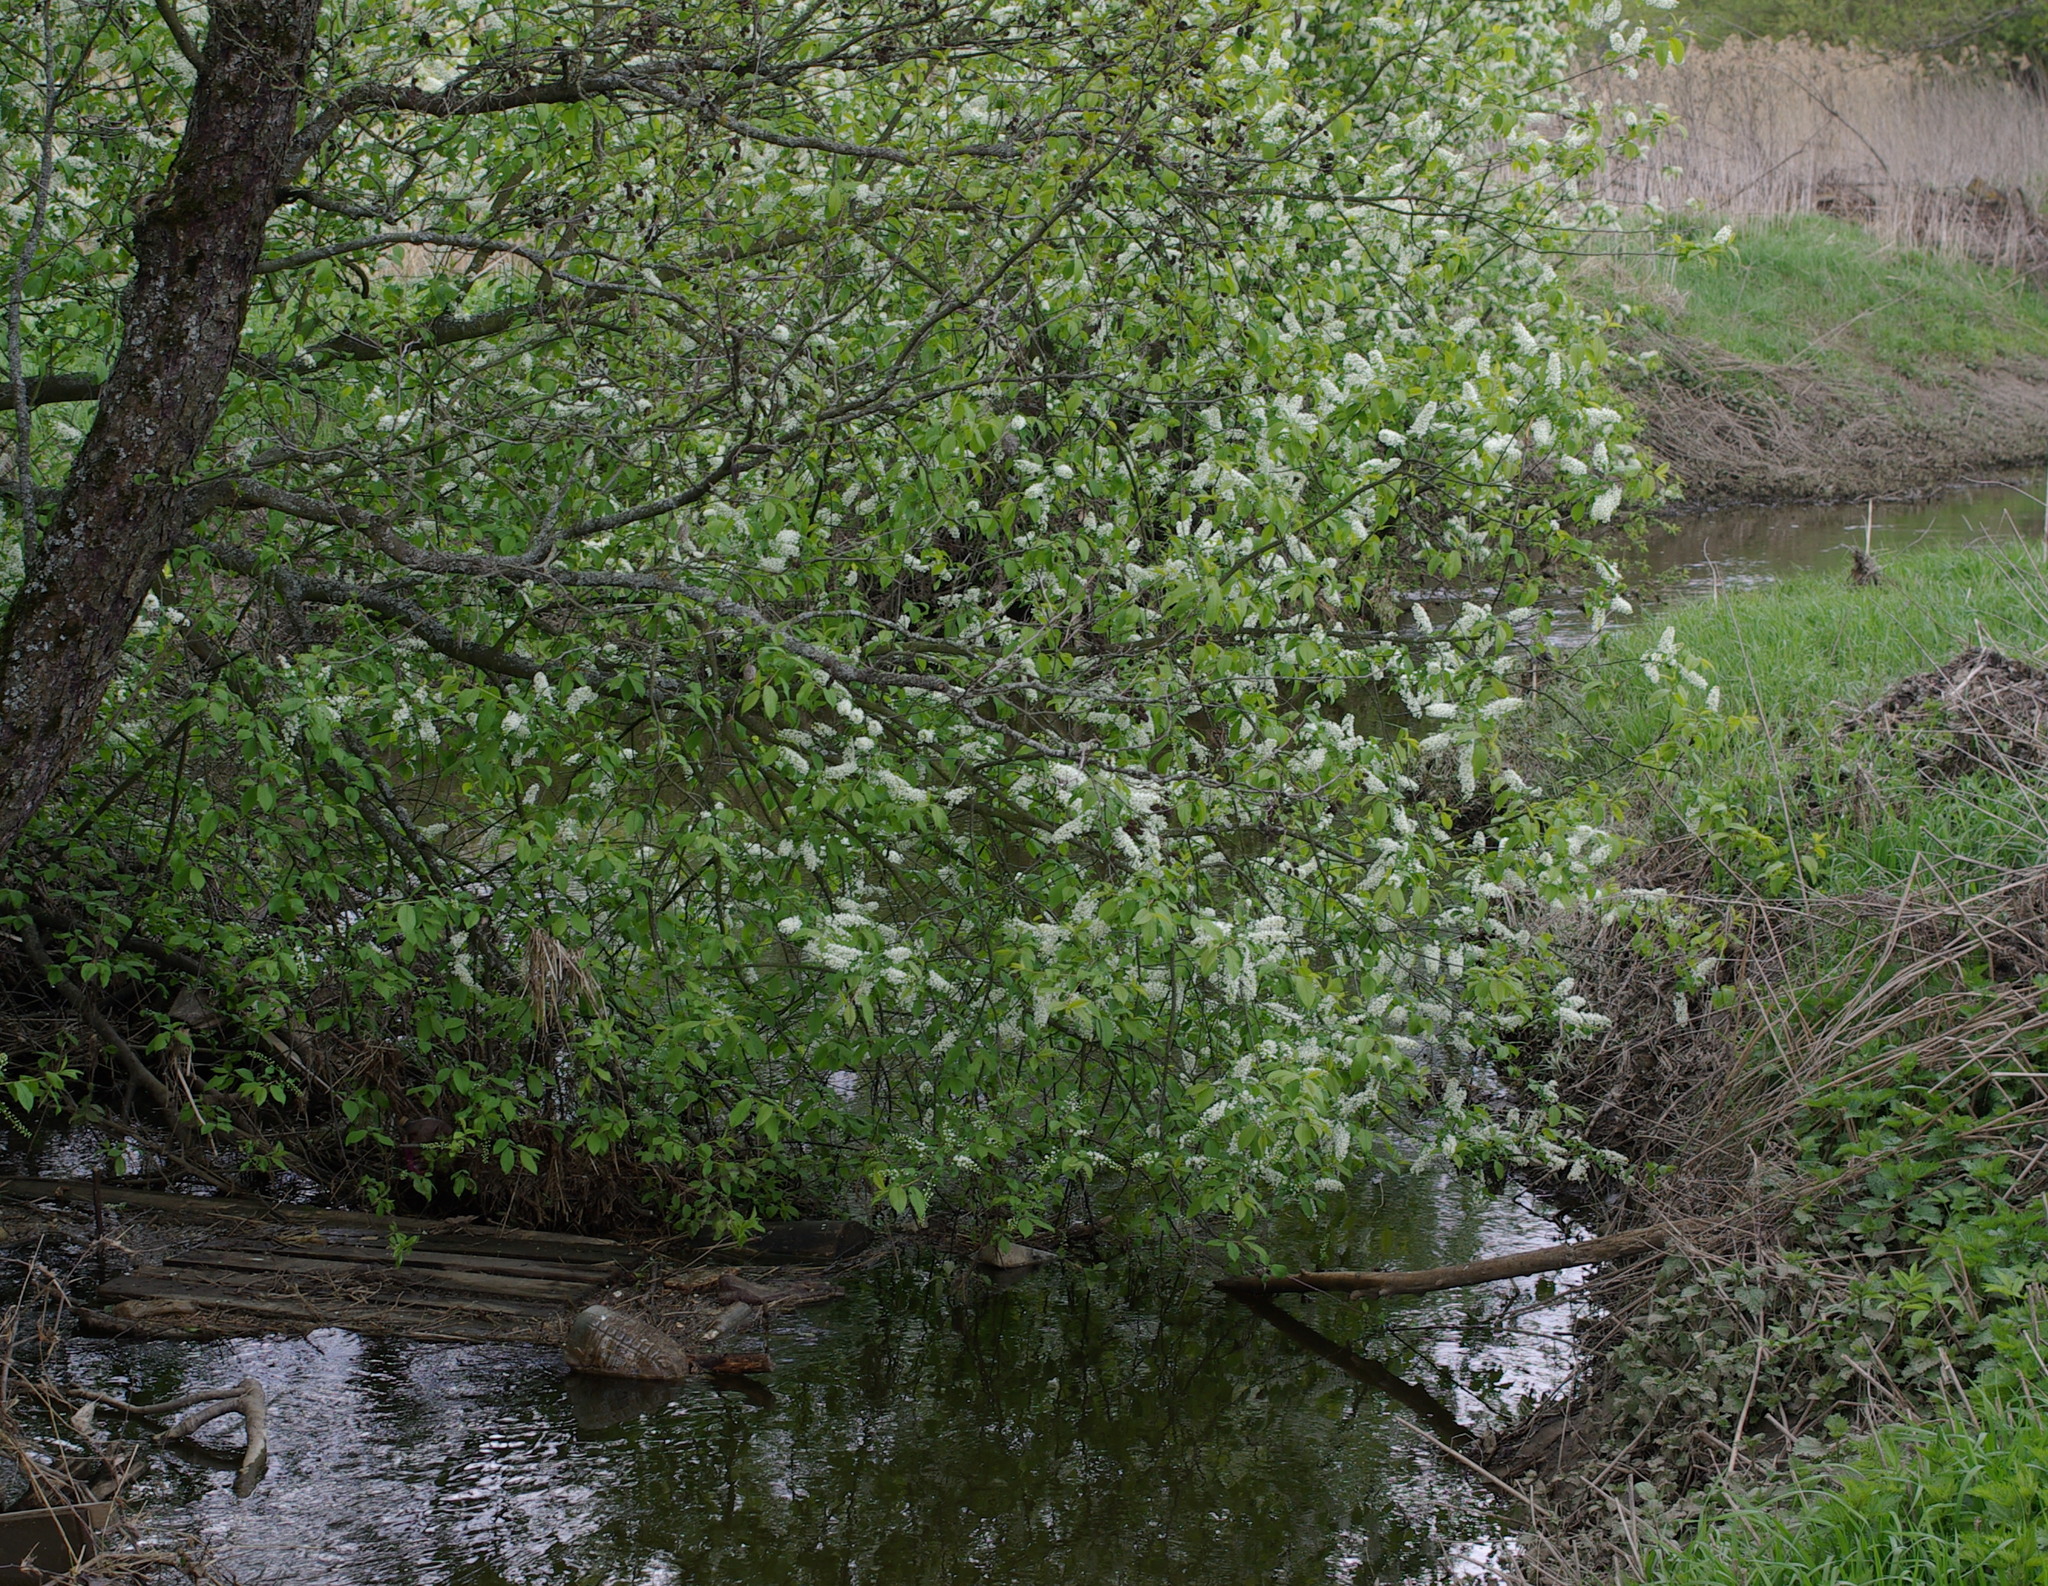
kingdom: Plantae
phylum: Tracheophyta
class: Magnoliopsida
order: Rosales
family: Rosaceae
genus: Prunus
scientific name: Prunus padus
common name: Bird cherry
